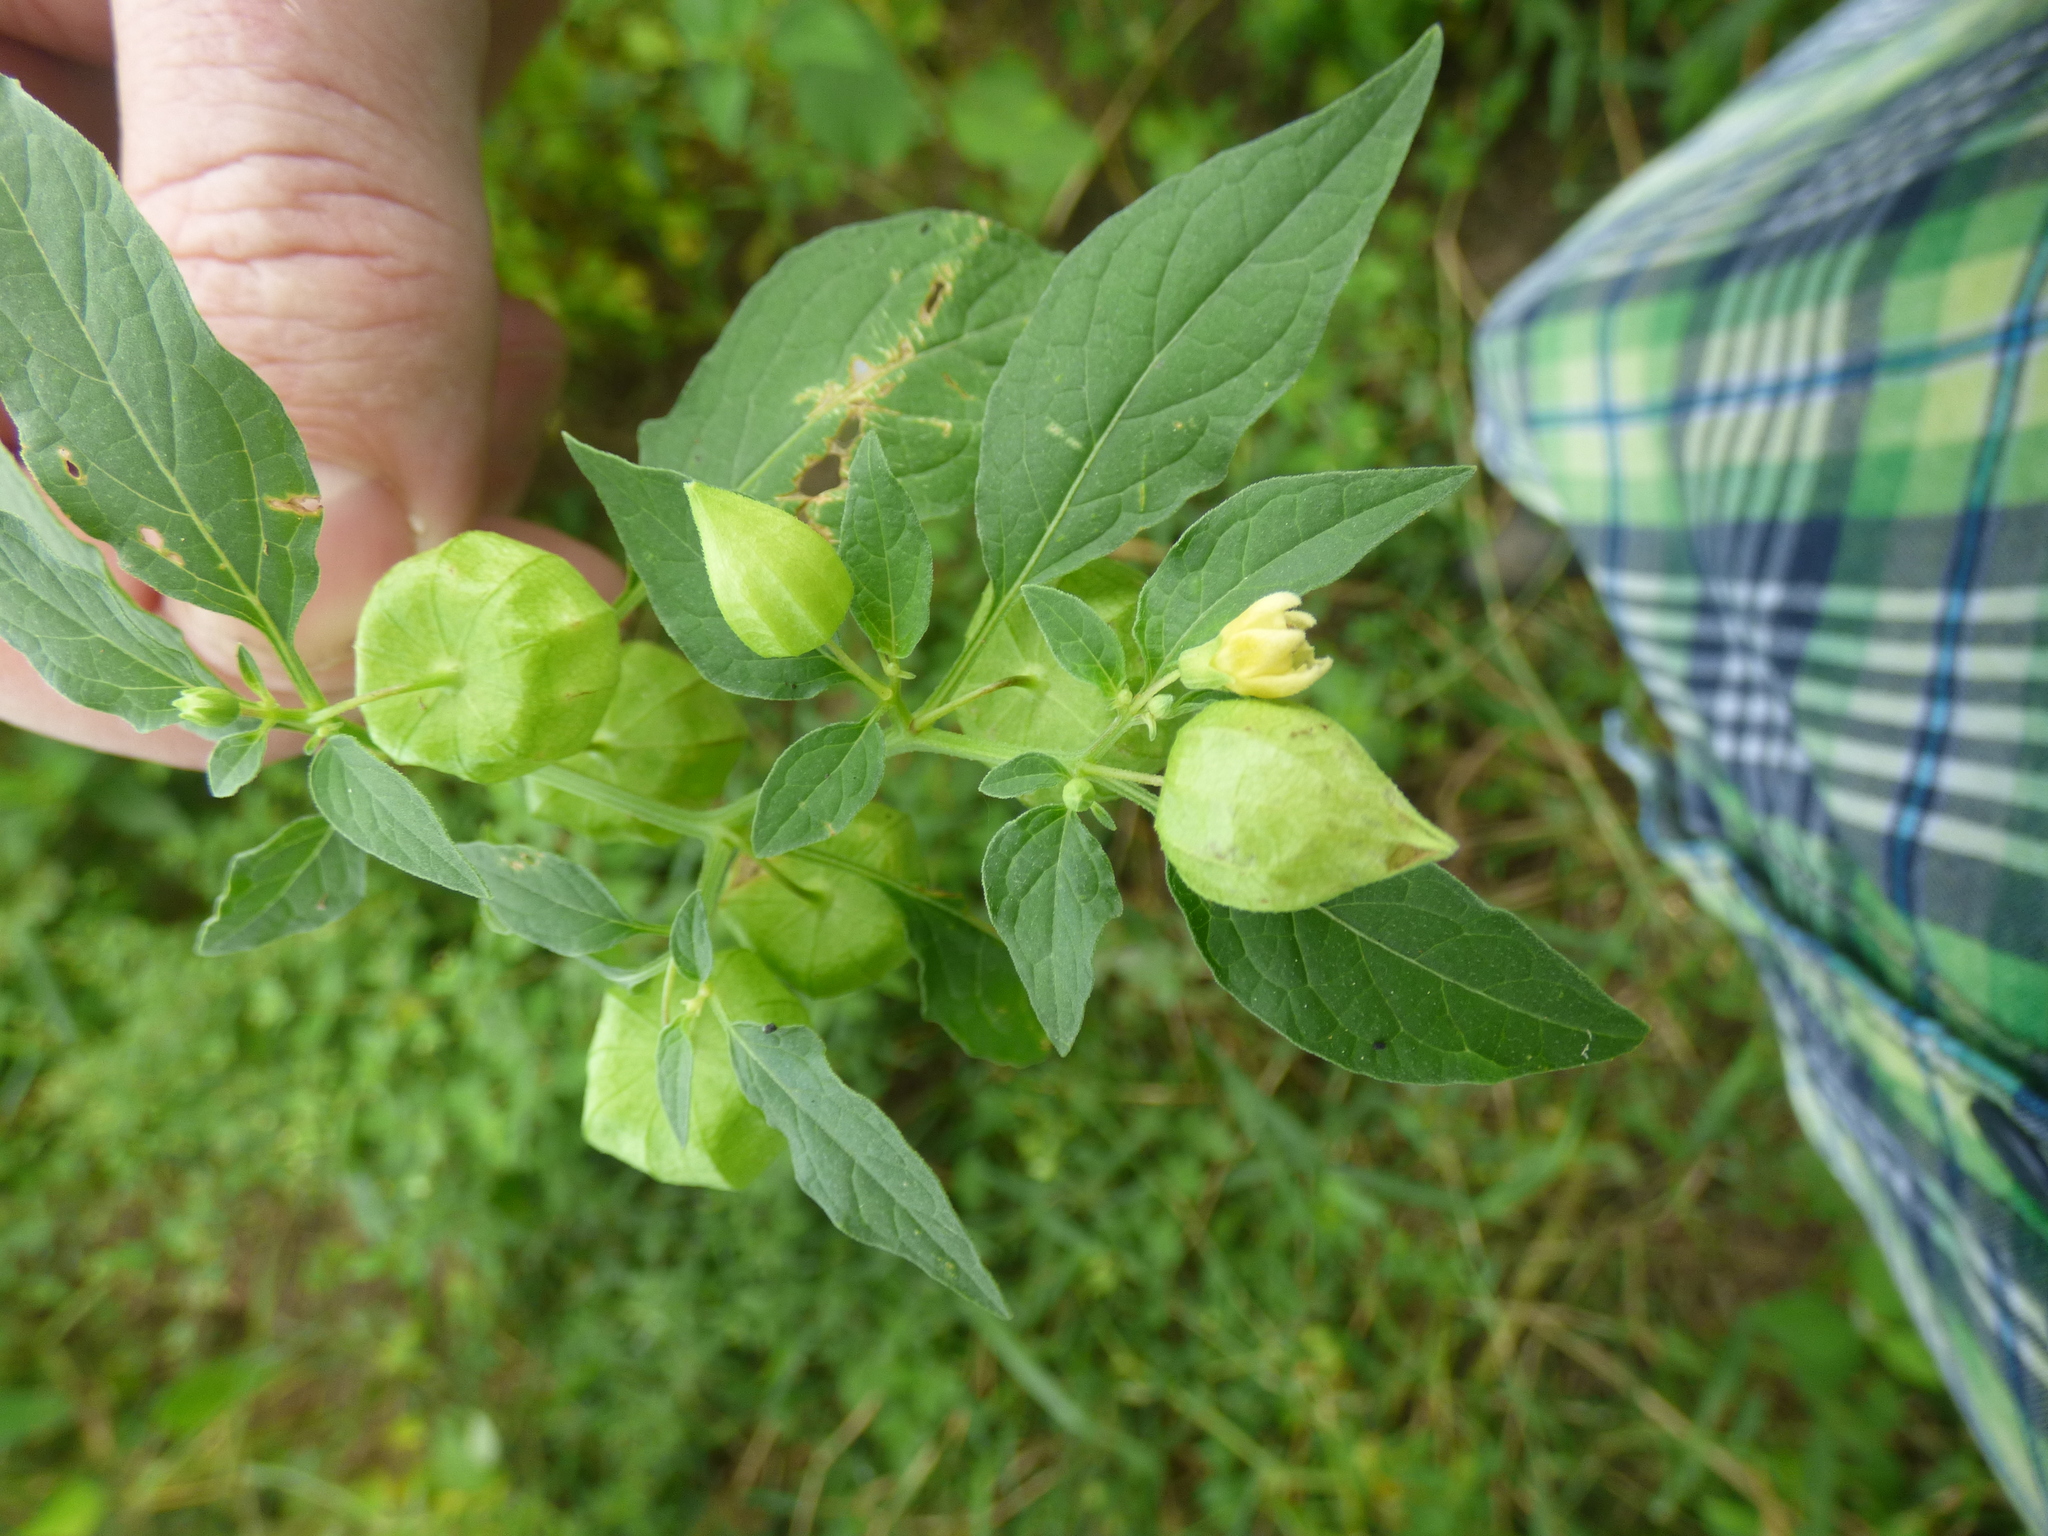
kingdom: Plantae
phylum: Tracheophyta
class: Magnoliopsida
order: Solanales
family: Solanaceae
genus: Physalis
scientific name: Physalis angulata
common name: Angular winter-cherry
